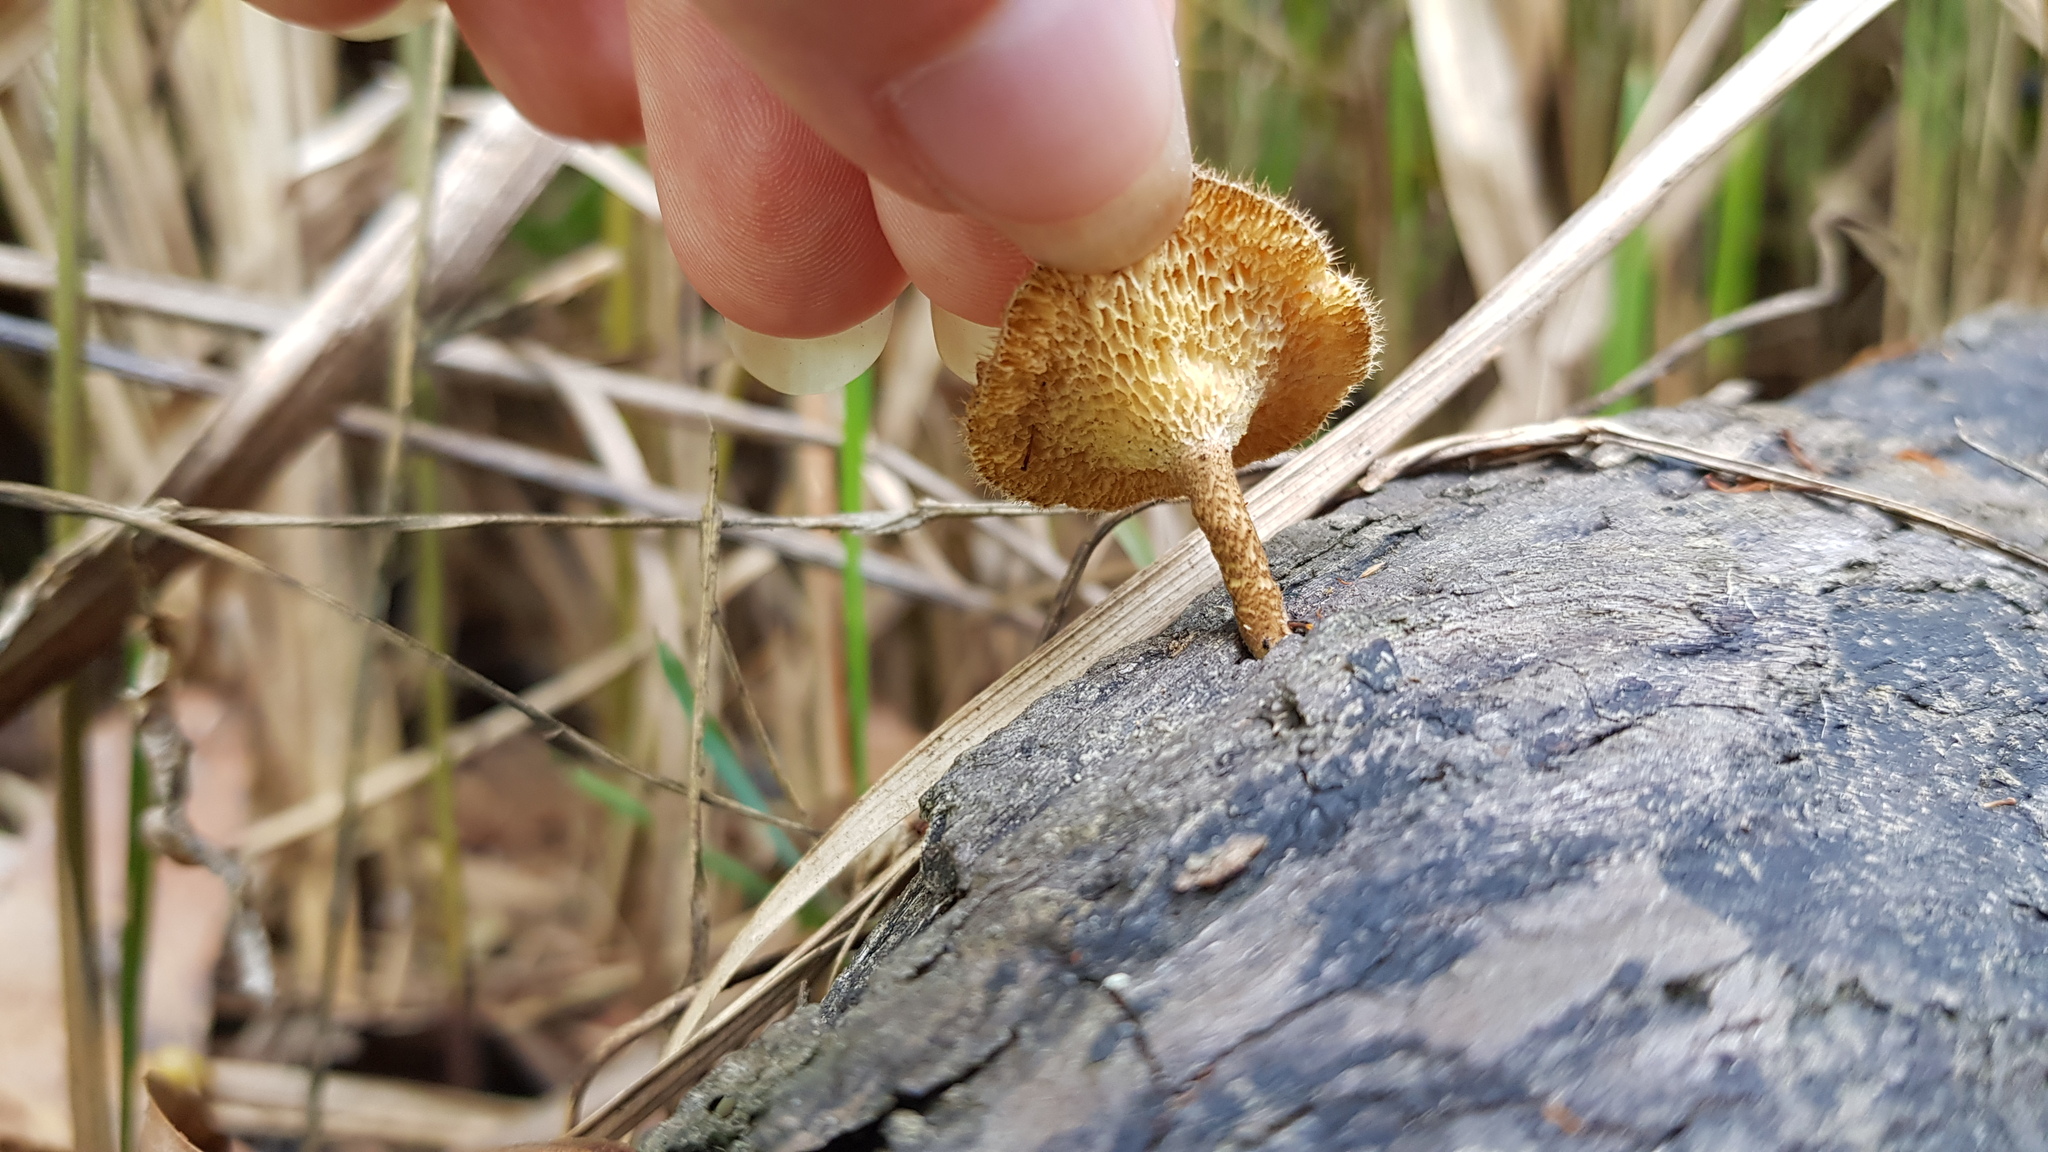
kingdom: Fungi
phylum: Basidiomycota
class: Agaricomycetes
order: Polyporales
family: Polyporaceae
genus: Lentinus
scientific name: Lentinus arcularius
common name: Spring polypore
